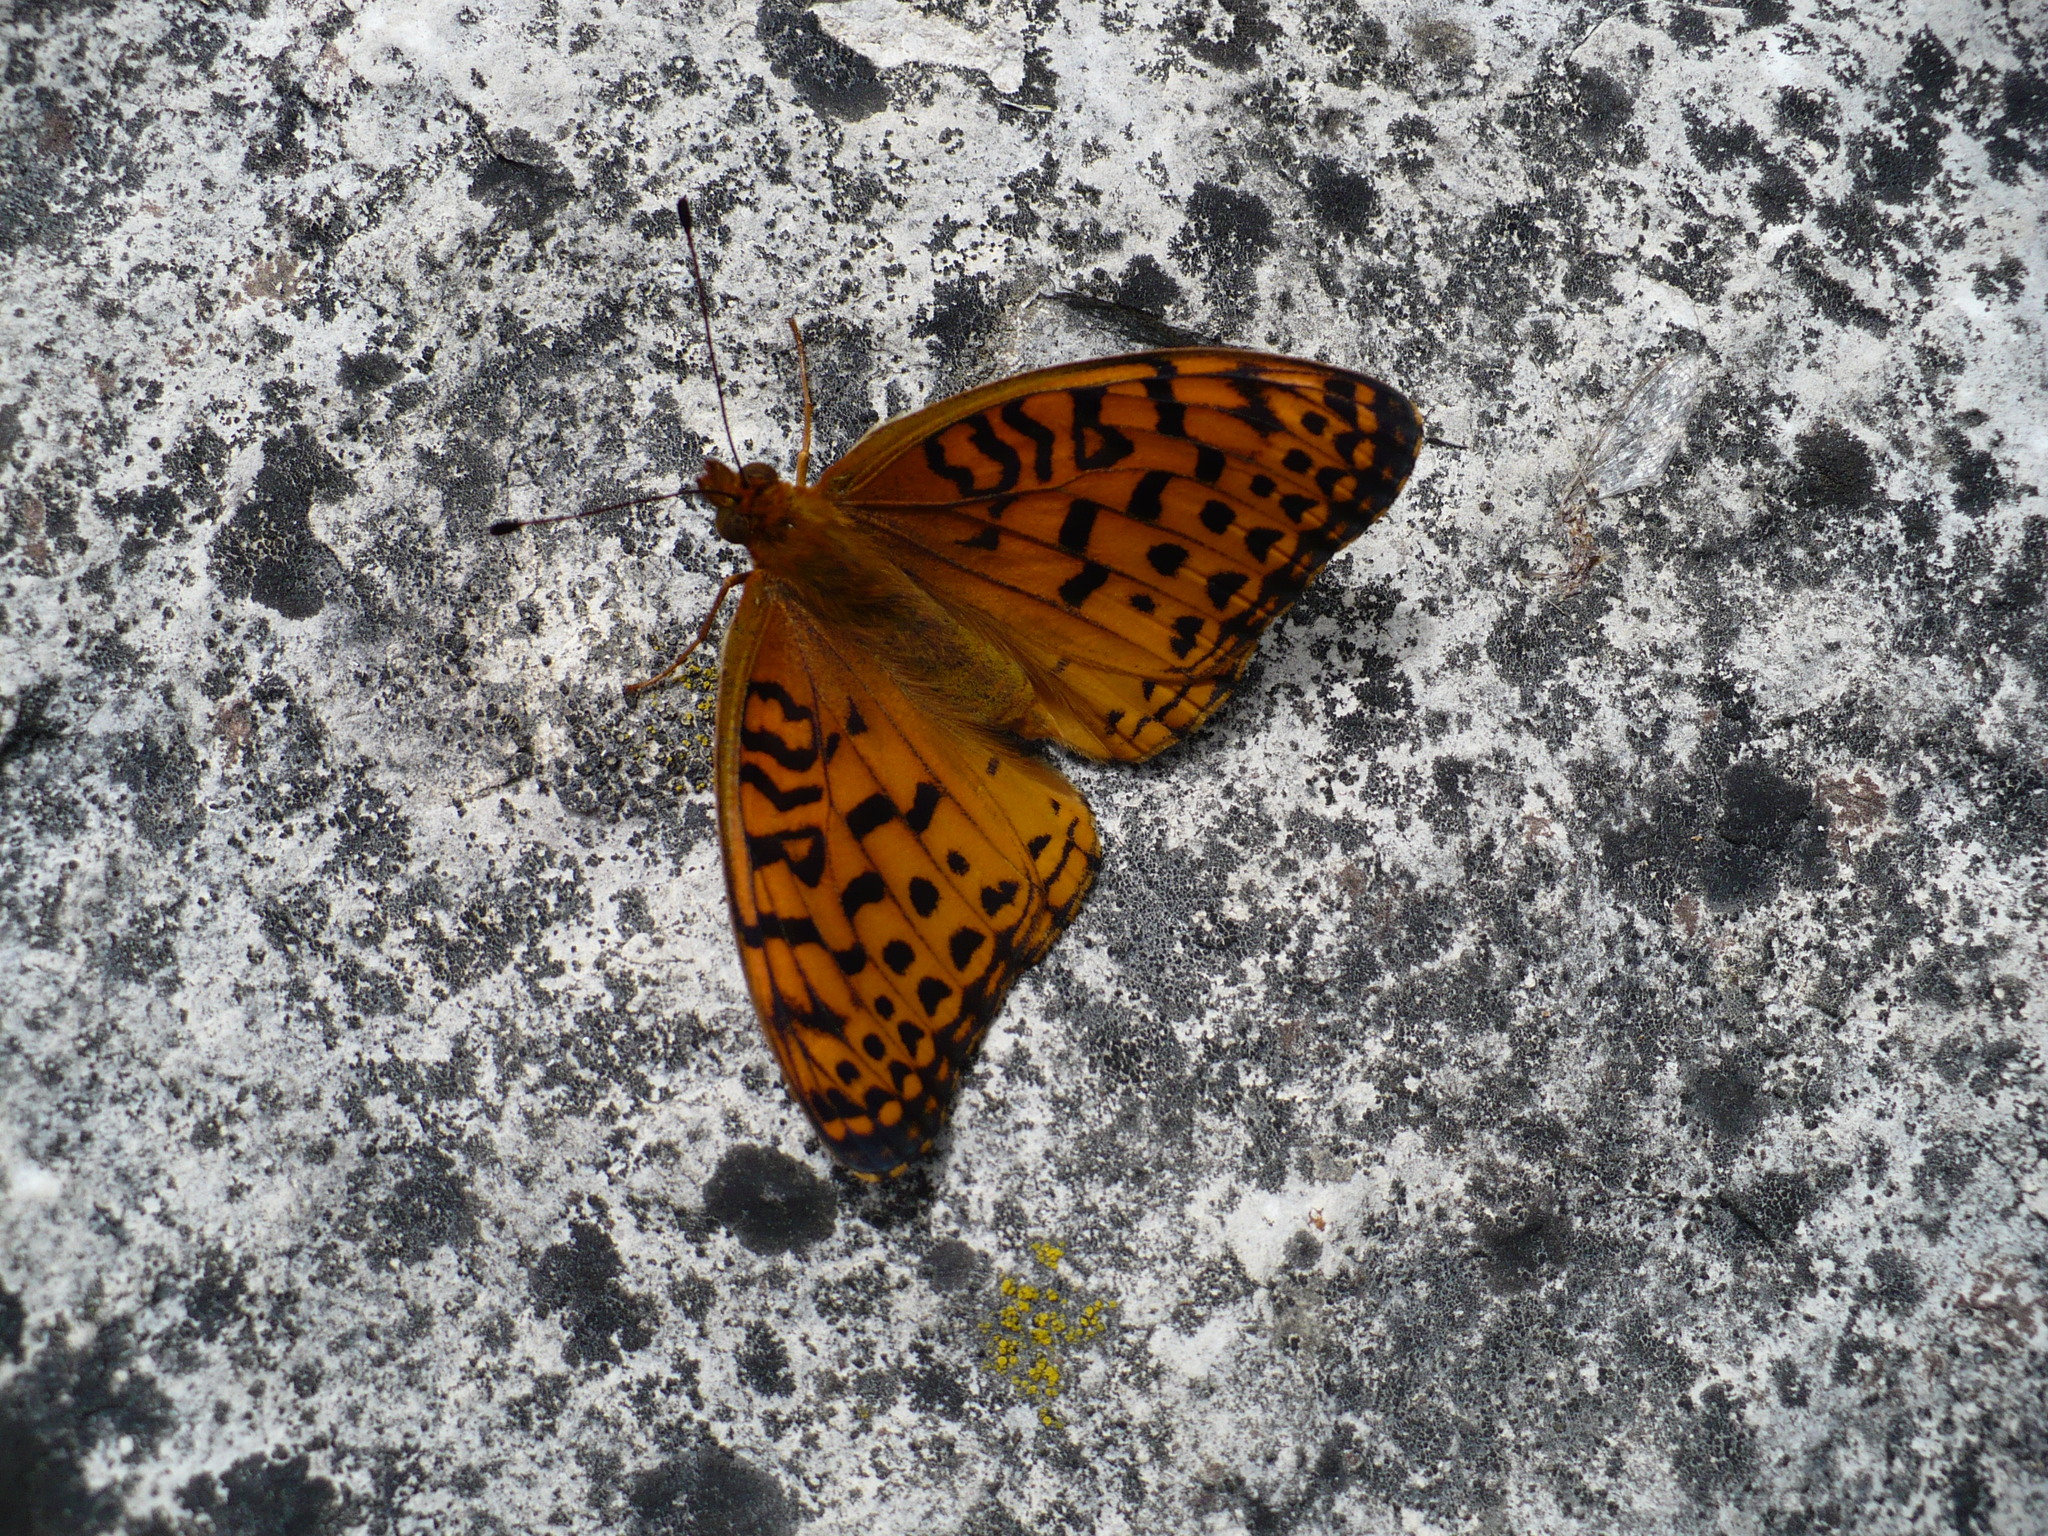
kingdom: Animalia
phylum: Arthropoda
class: Insecta
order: Lepidoptera
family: Nymphalidae
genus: Speyeria
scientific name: Speyeria aphrodite
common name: Aphrodite friitllary
